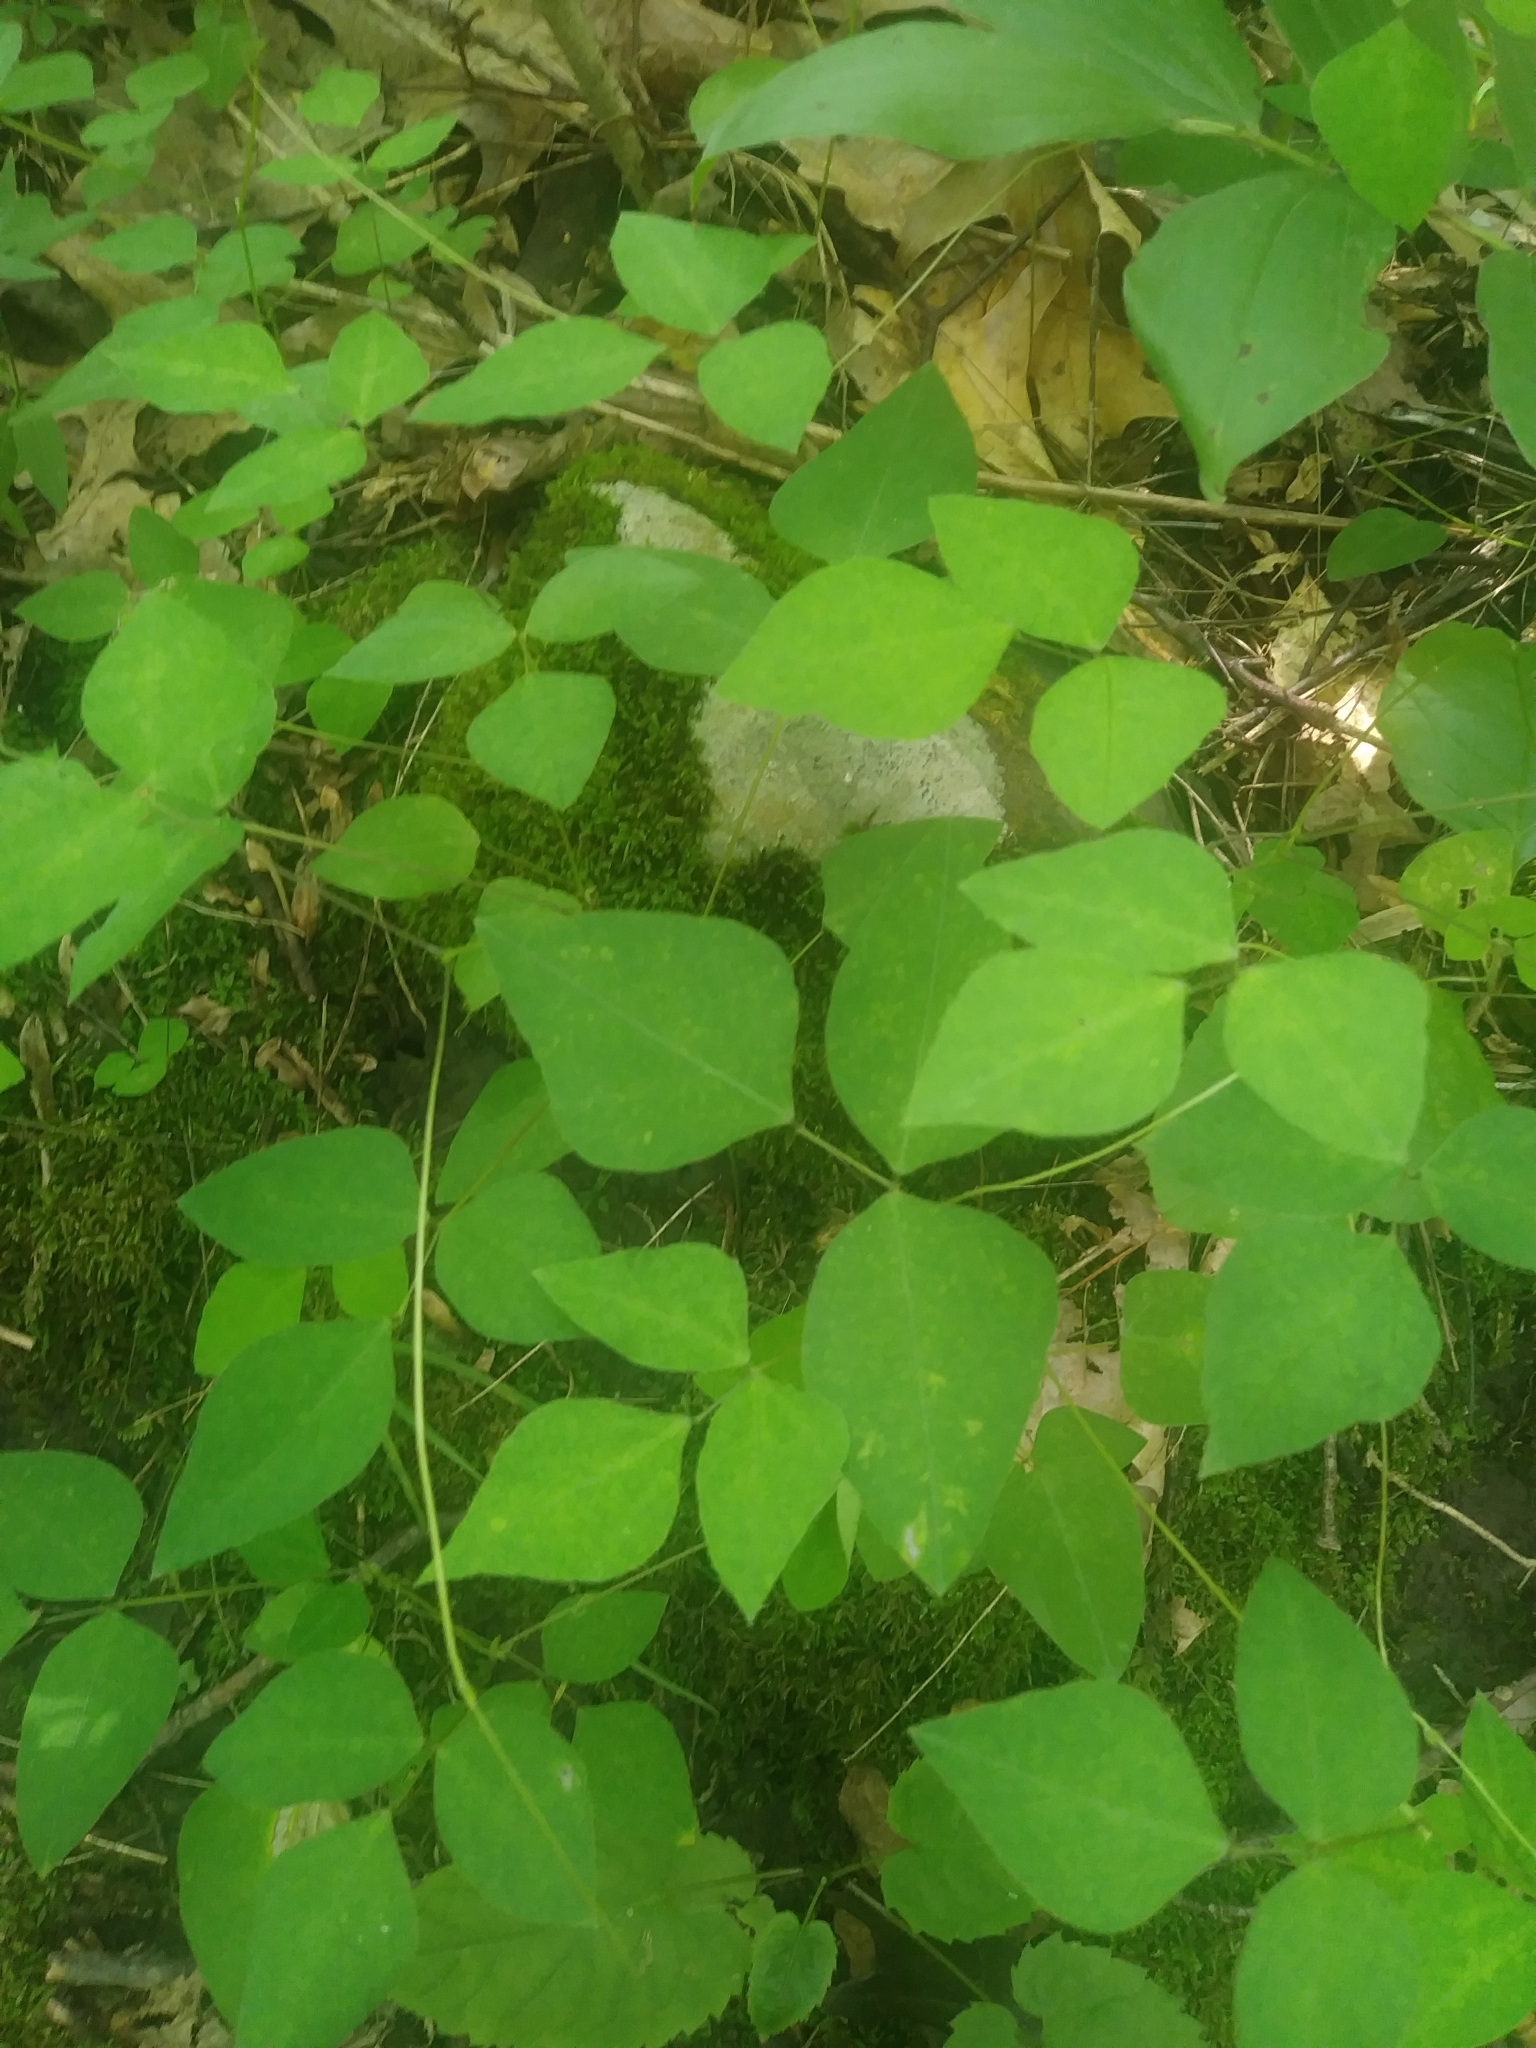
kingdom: Plantae
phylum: Tracheophyta
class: Magnoliopsida
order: Fabales
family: Fabaceae
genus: Amphicarpaea
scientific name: Amphicarpaea bracteata
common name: American hog peanut
